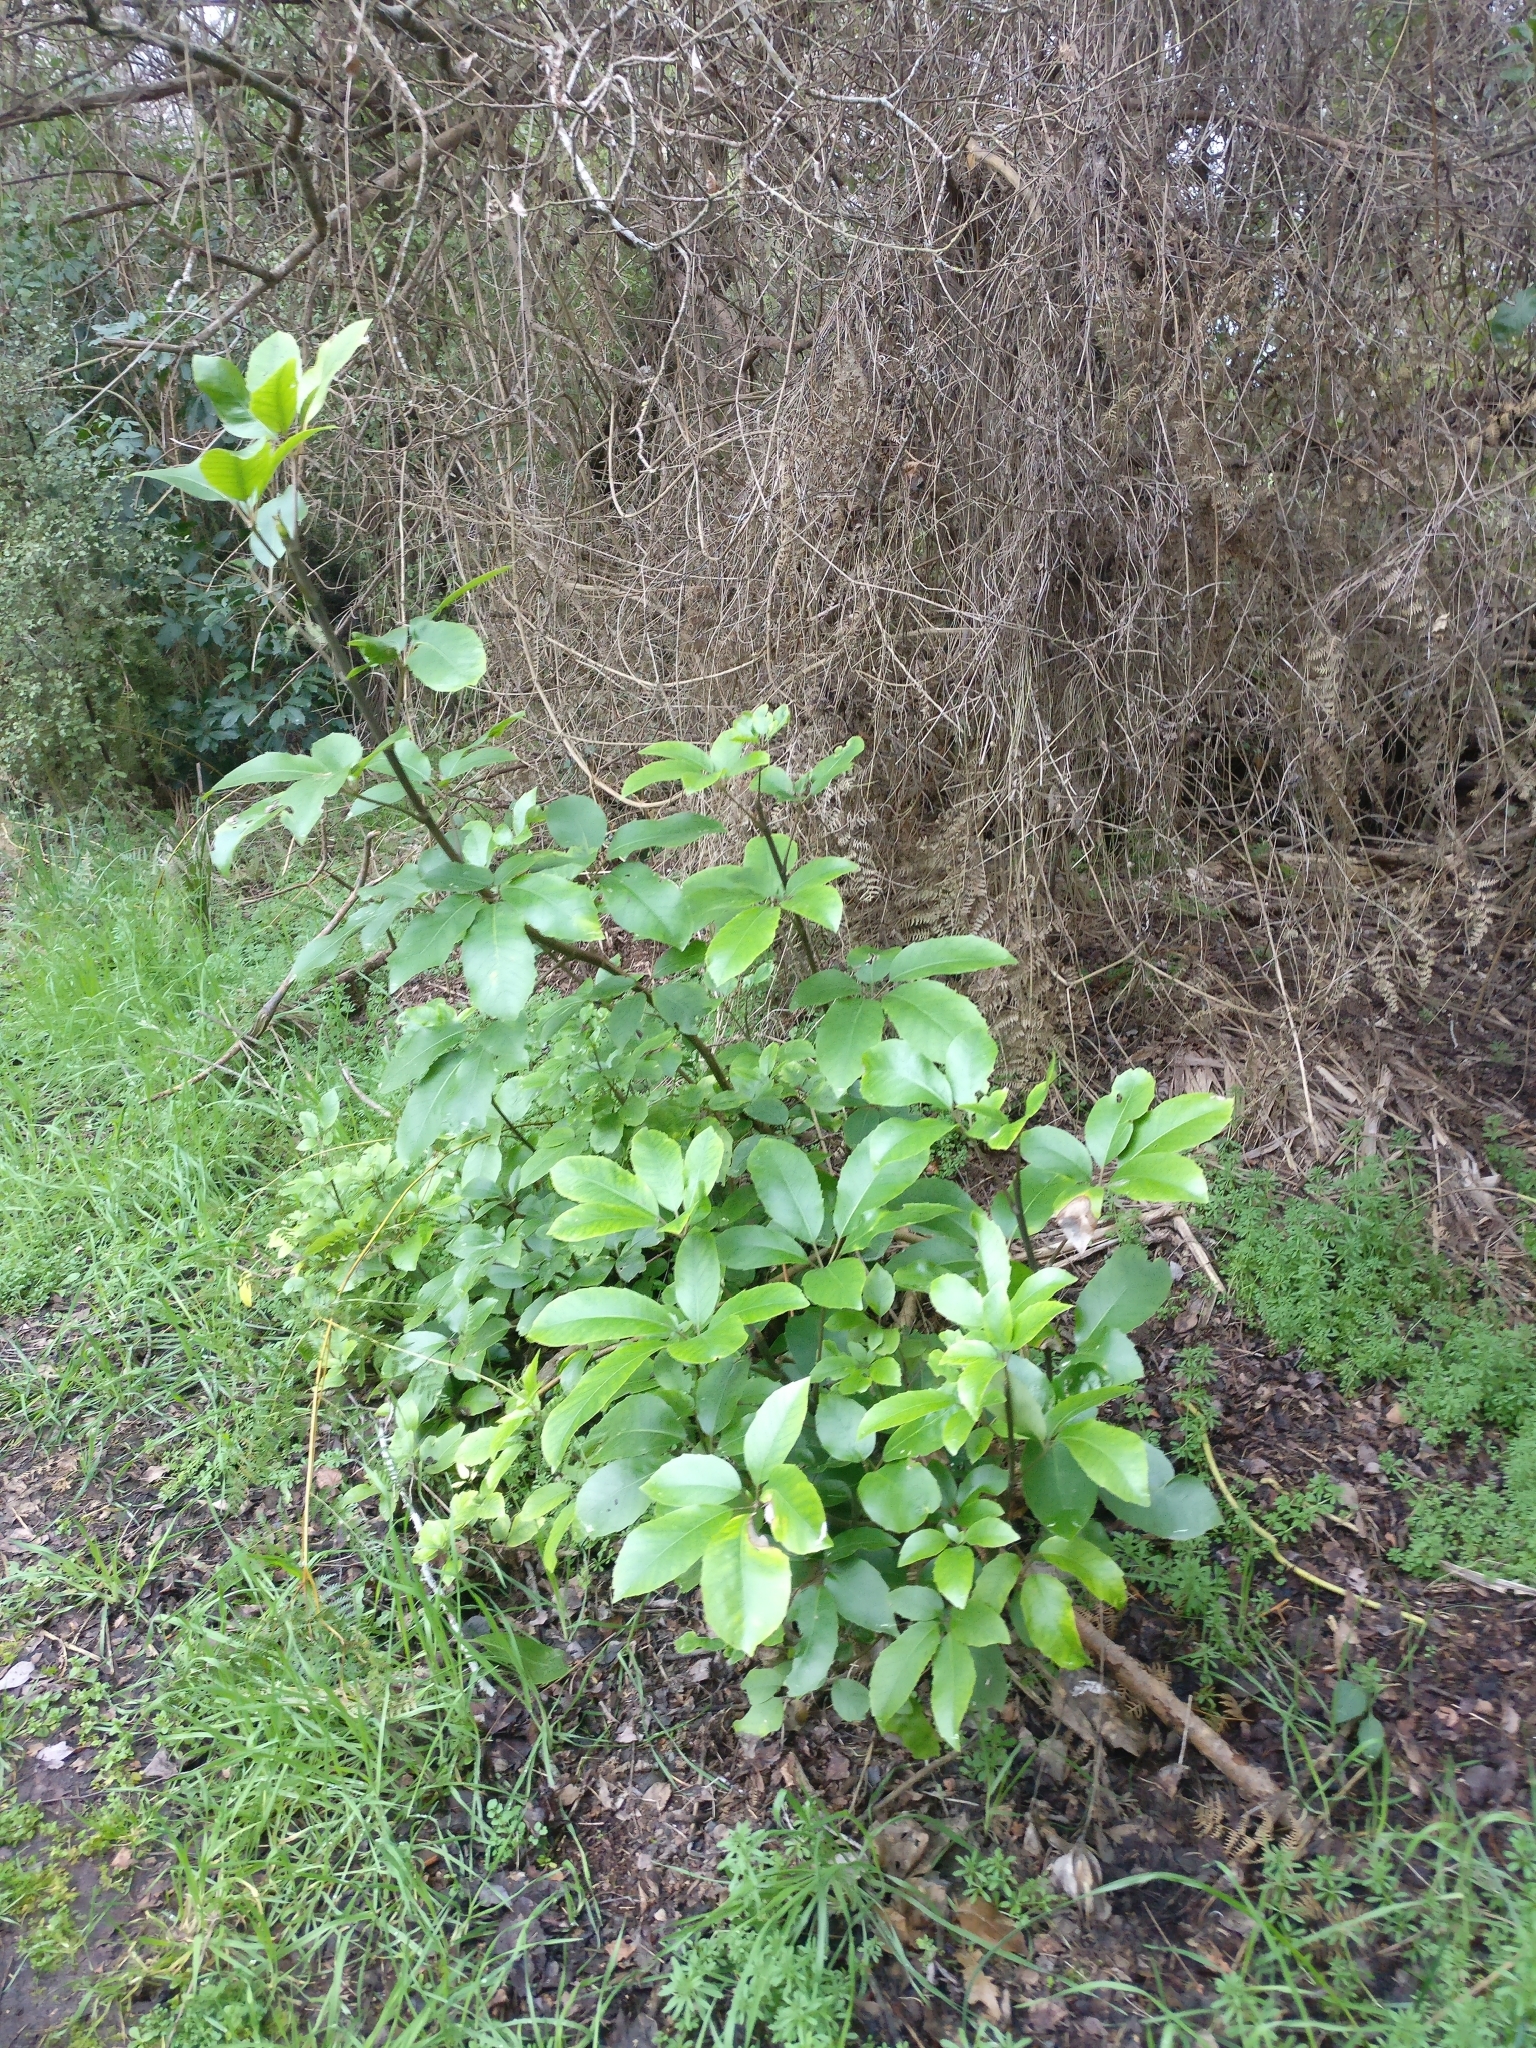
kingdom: Plantae
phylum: Tracheophyta
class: Magnoliopsida
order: Apiales
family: Araliaceae
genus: Neopanax
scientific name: Neopanax arboreus
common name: Five-fingers
